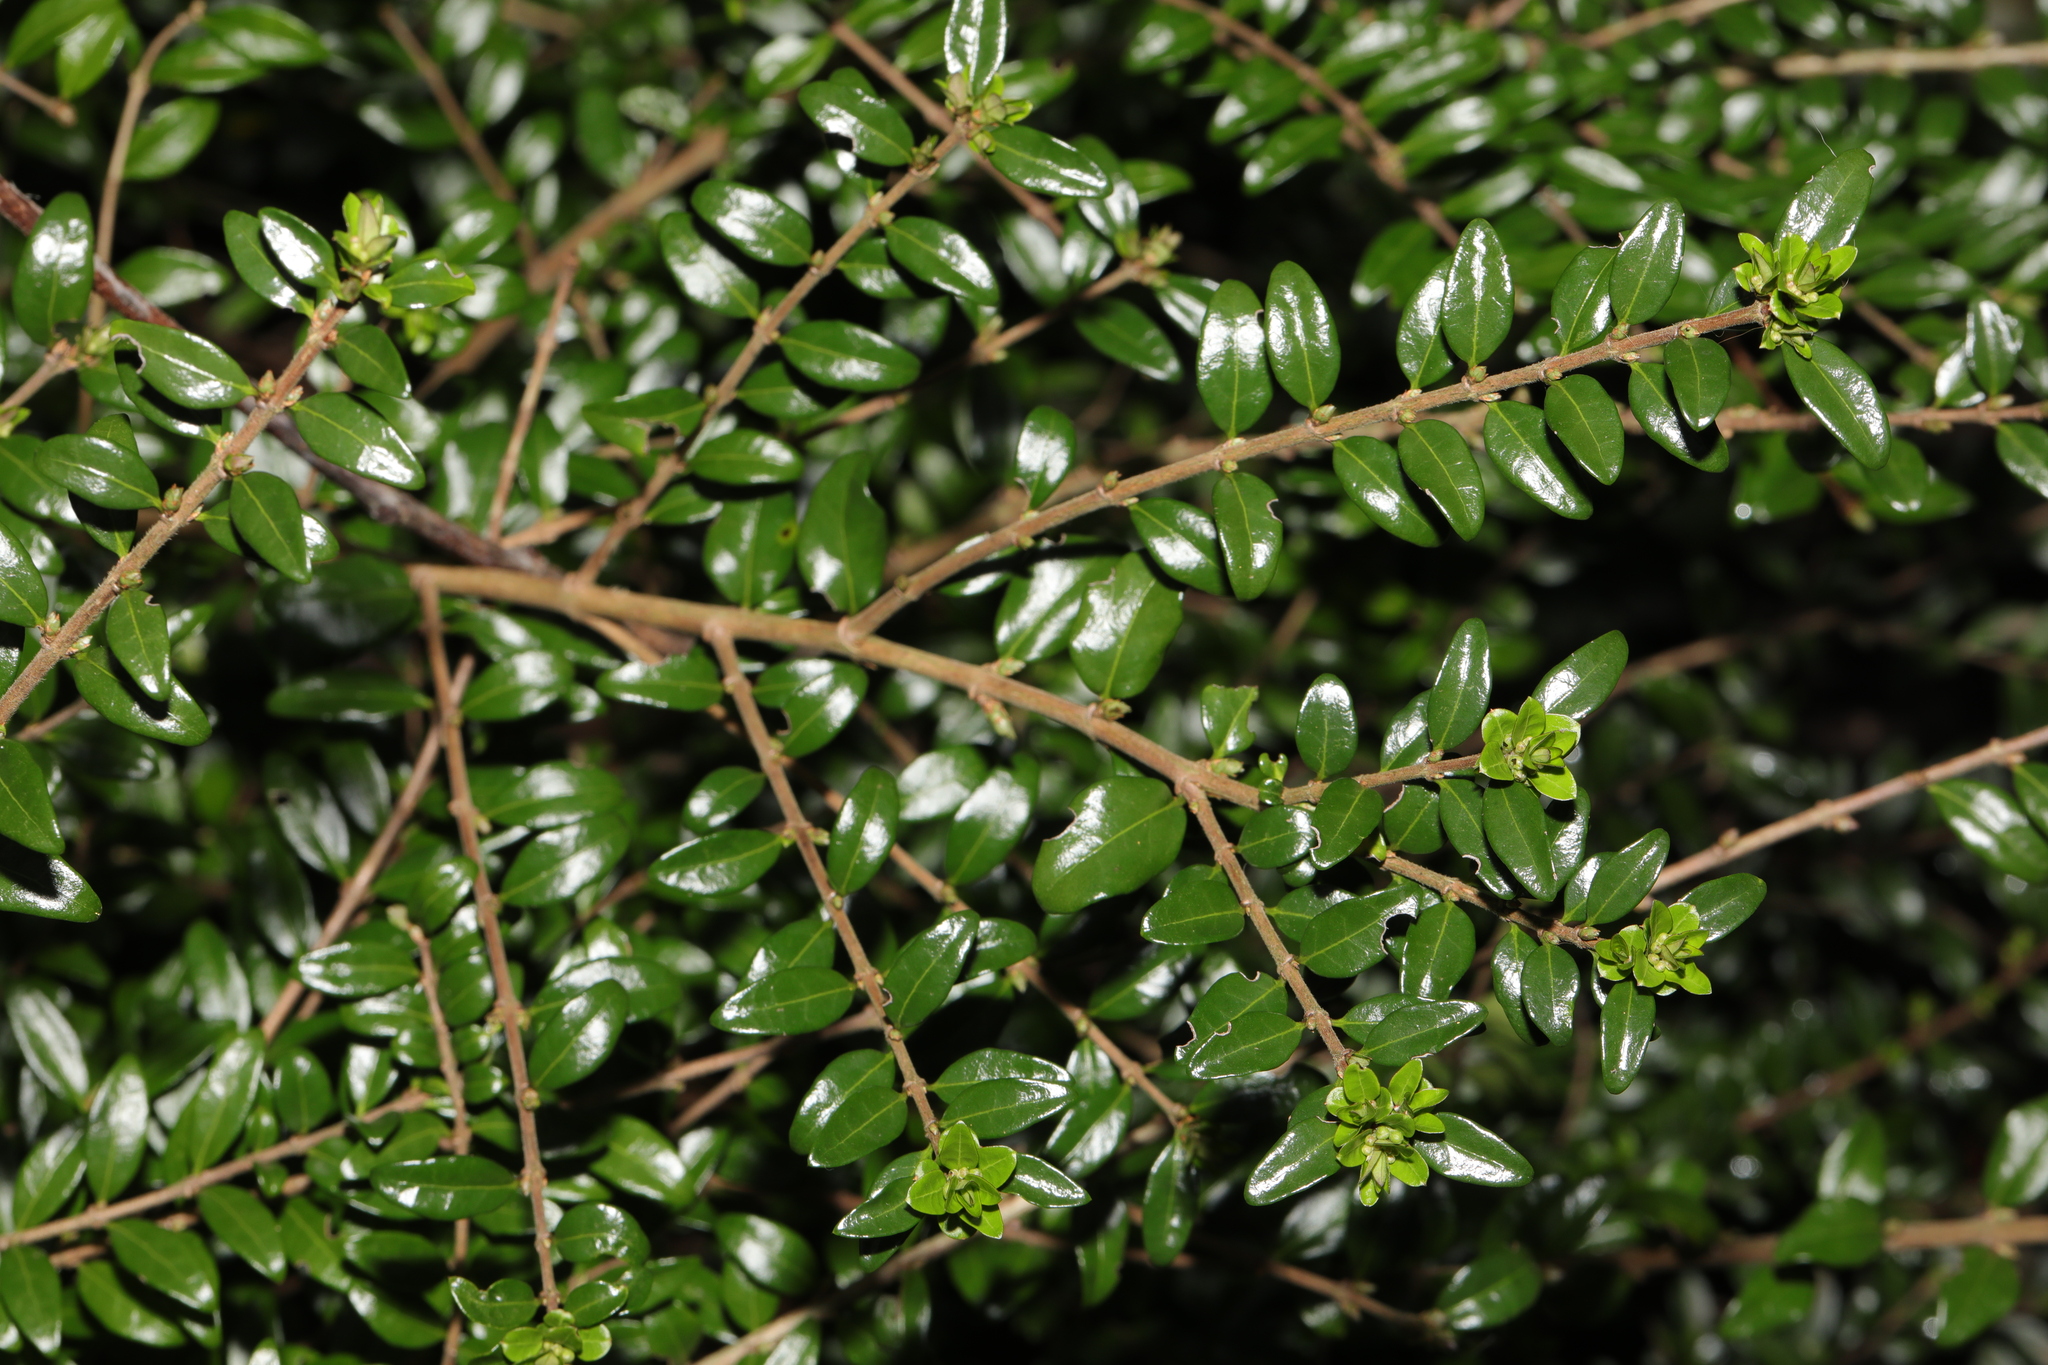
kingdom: Plantae
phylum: Tracheophyta
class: Magnoliopsida
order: Dipsacales
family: Caprifoliaceae
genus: Lonicera
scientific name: Lonicera ligustrina
